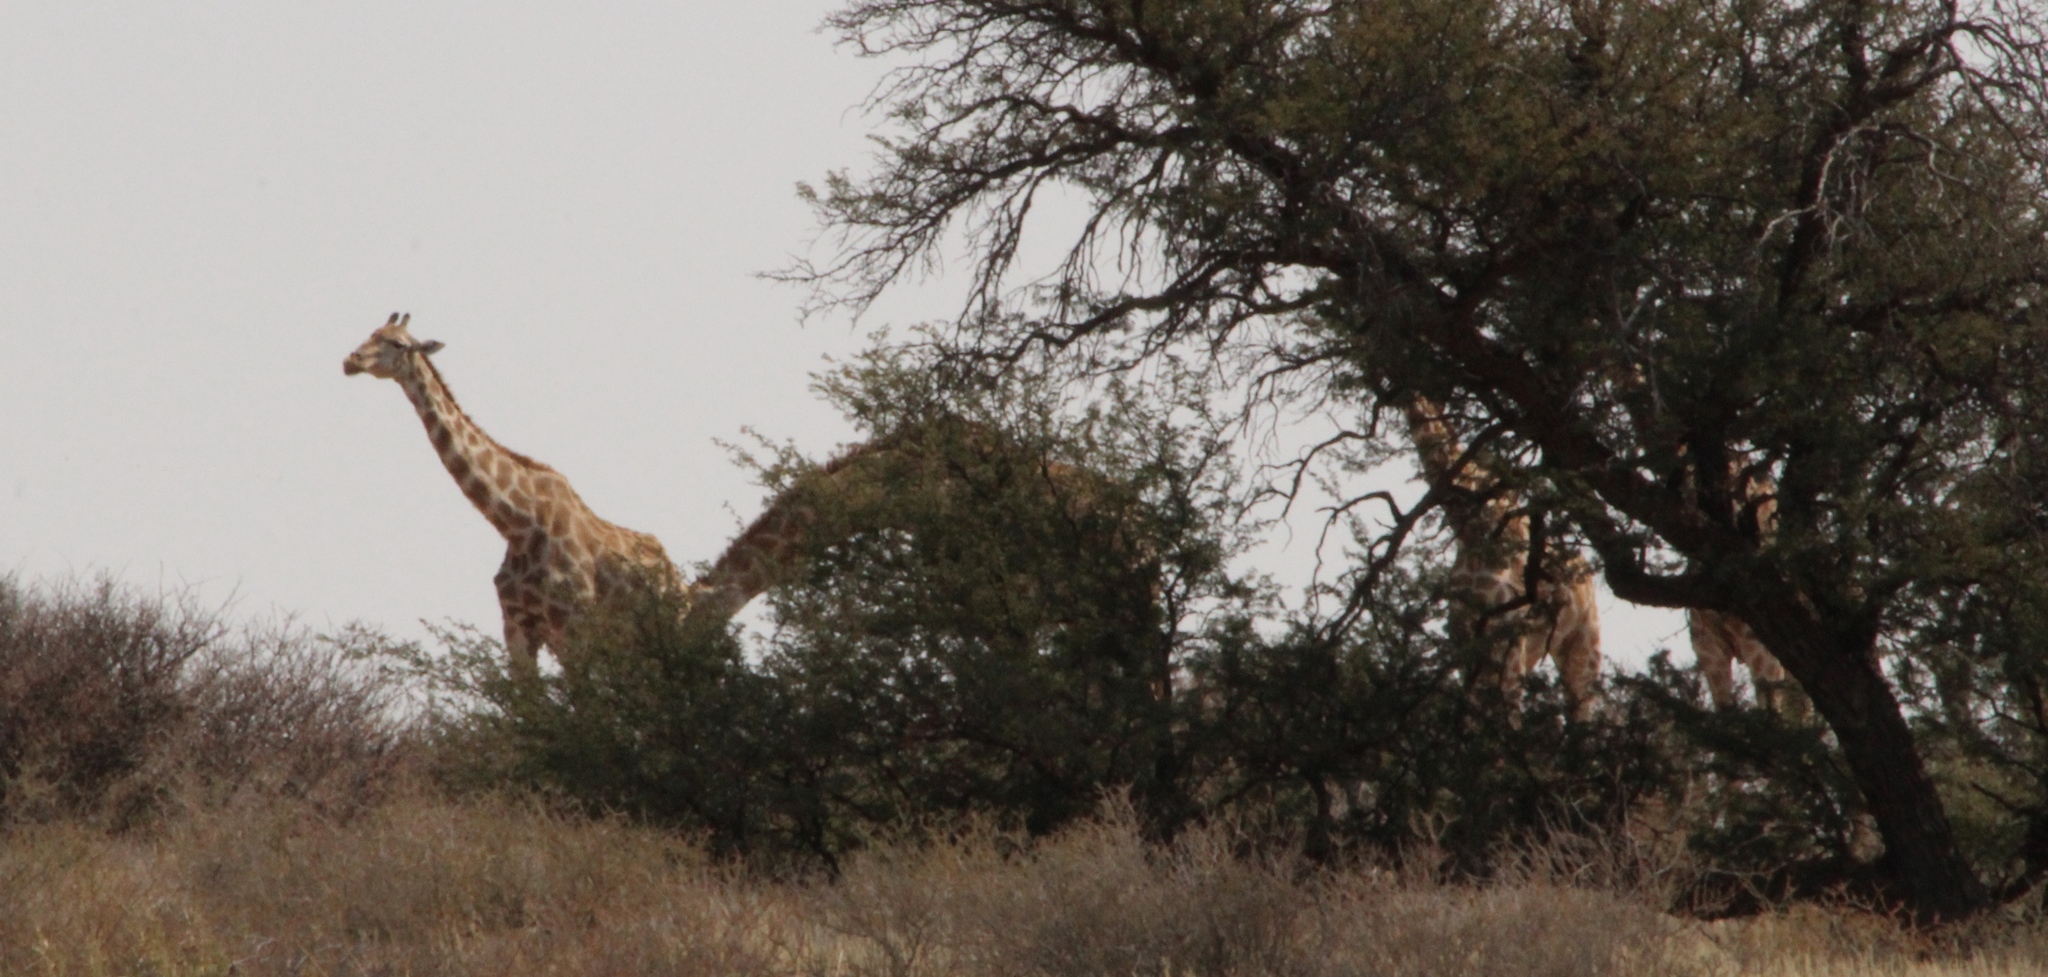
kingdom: Animalia
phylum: Chordata
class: Mammalia
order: Artiodactyla
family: Giraffidae
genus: Giraffa
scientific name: Giraffa giraffa
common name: Southern giraffe
